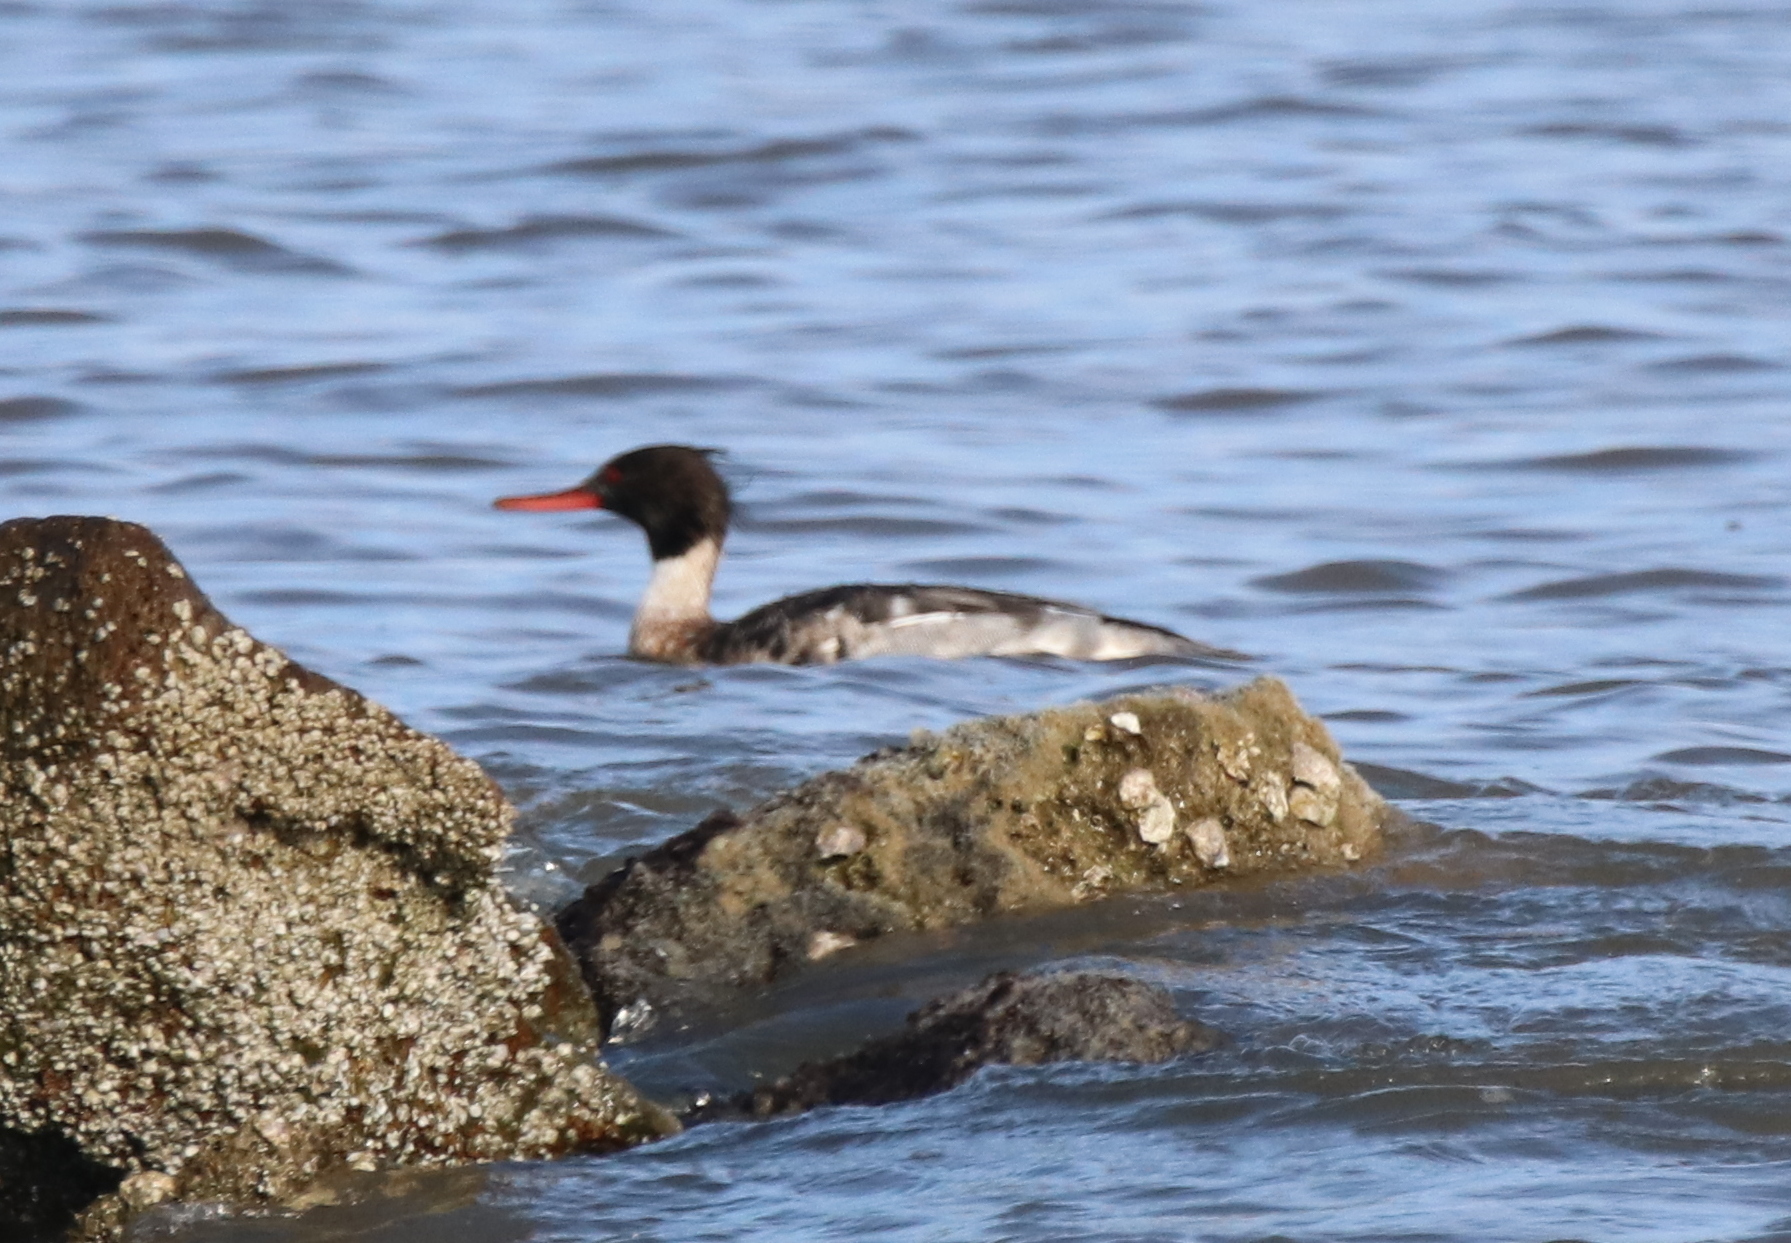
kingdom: Animalia
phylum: Chordata
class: Aves
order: Anseriformes
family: Anatidae
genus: Mergus
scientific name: Mergus serrator
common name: Red-breasted merganser
